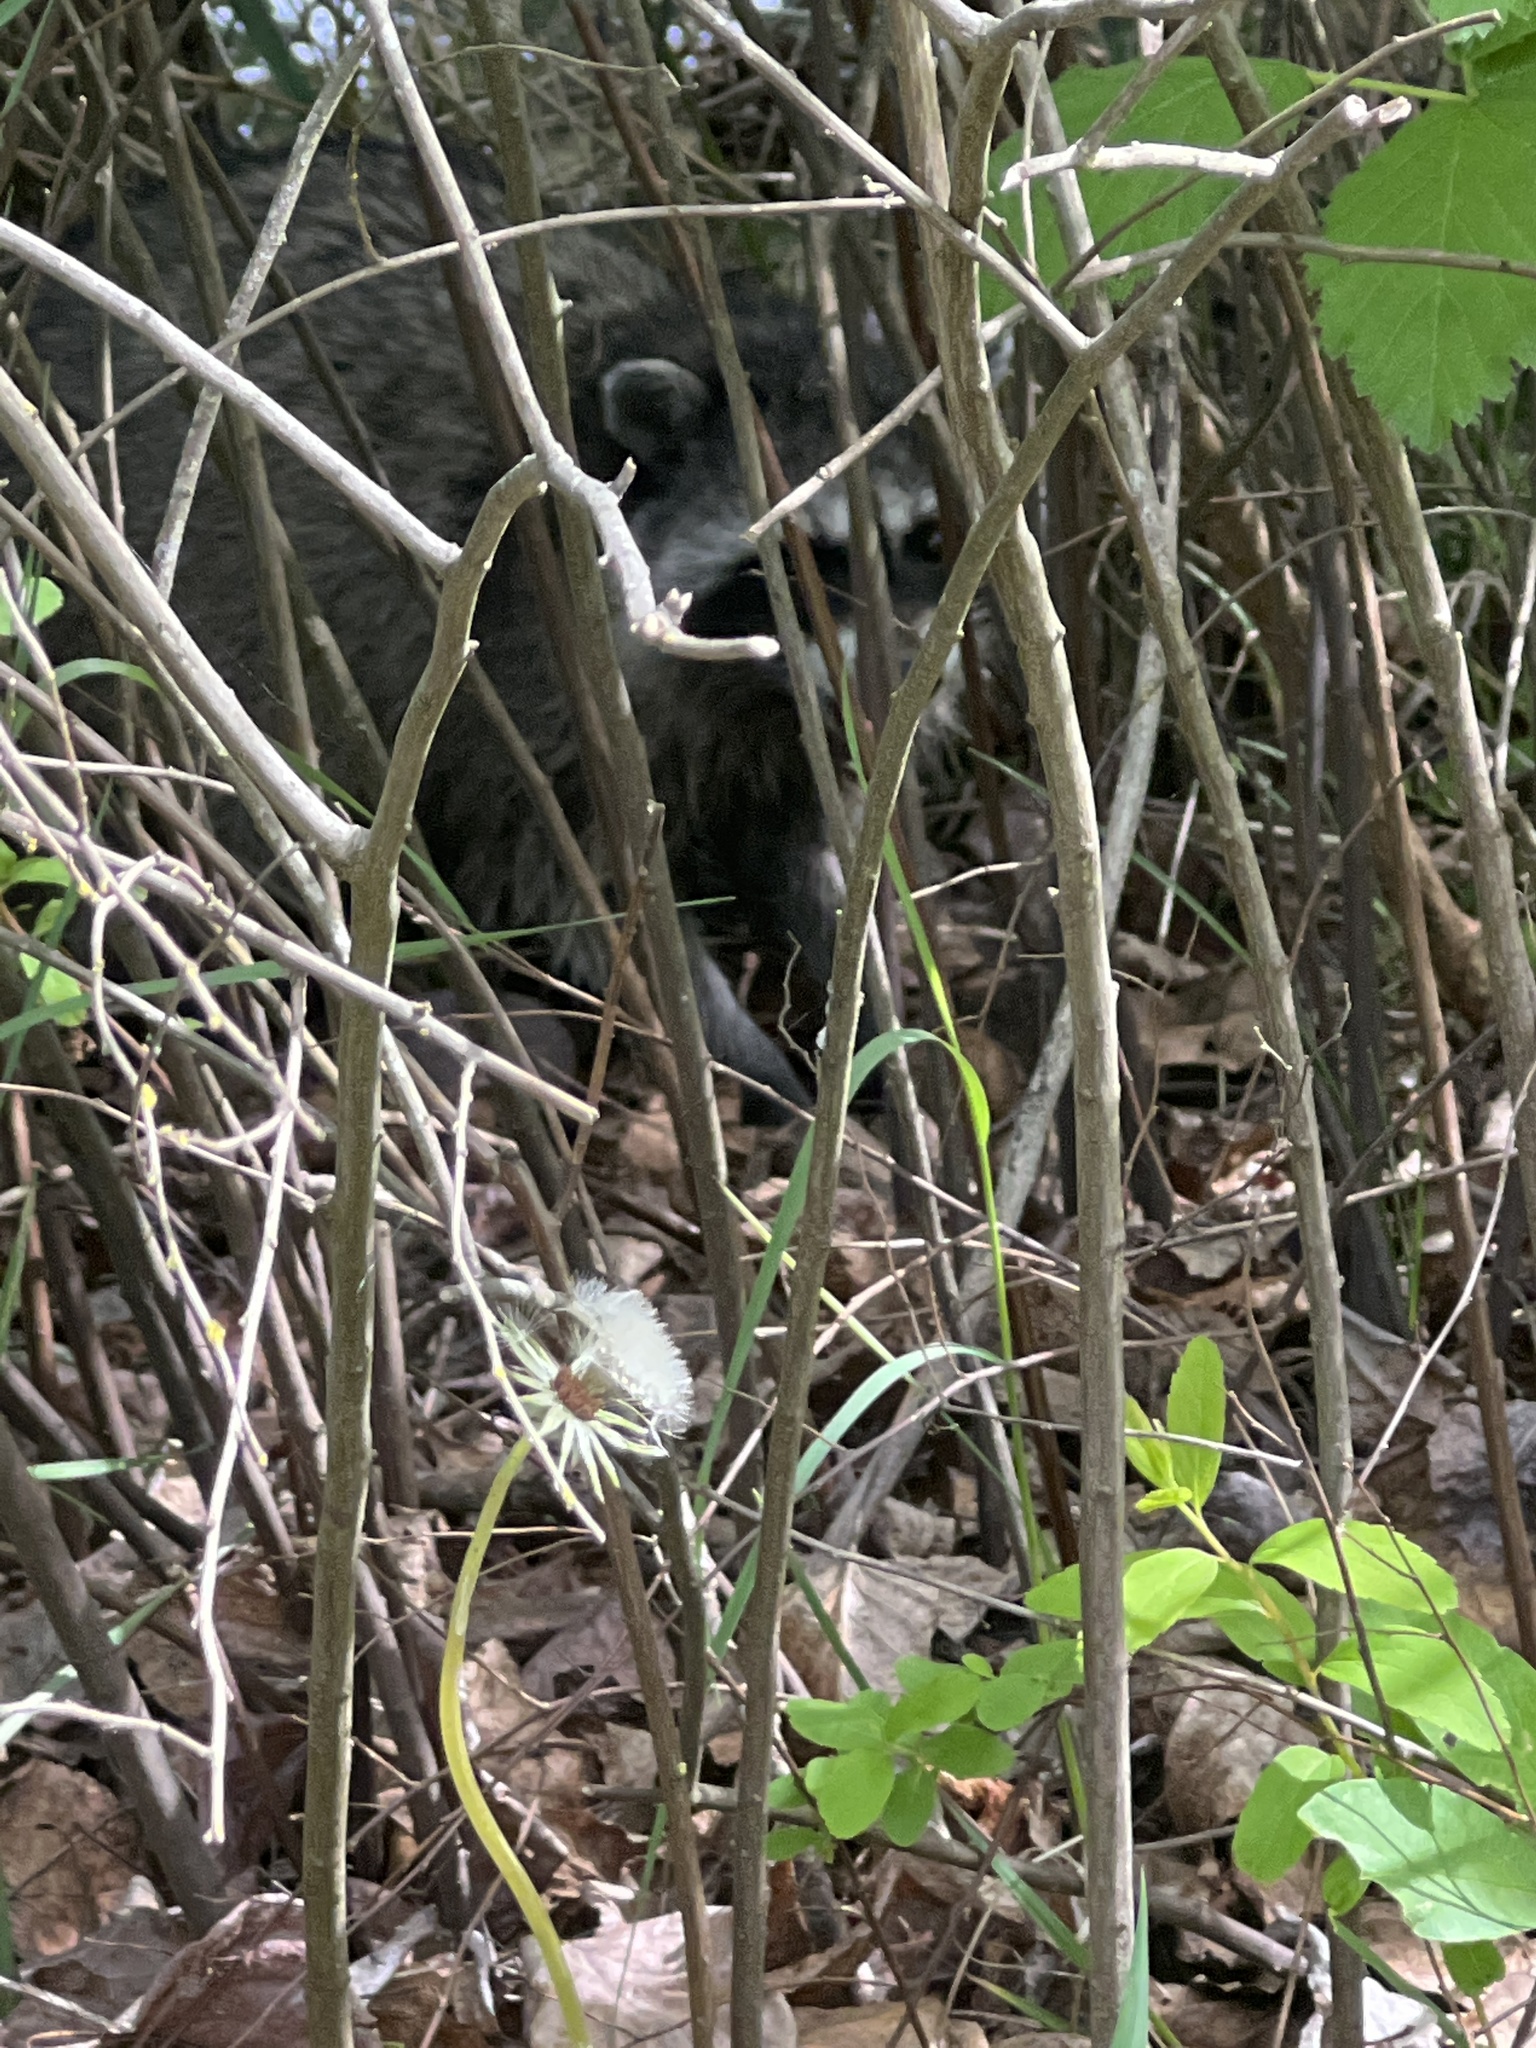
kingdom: Animalia
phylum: Chordata
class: Mammalia
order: Carnivora
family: Procyonidae
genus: Procyon
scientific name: Procyon lotor
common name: Raccoon
